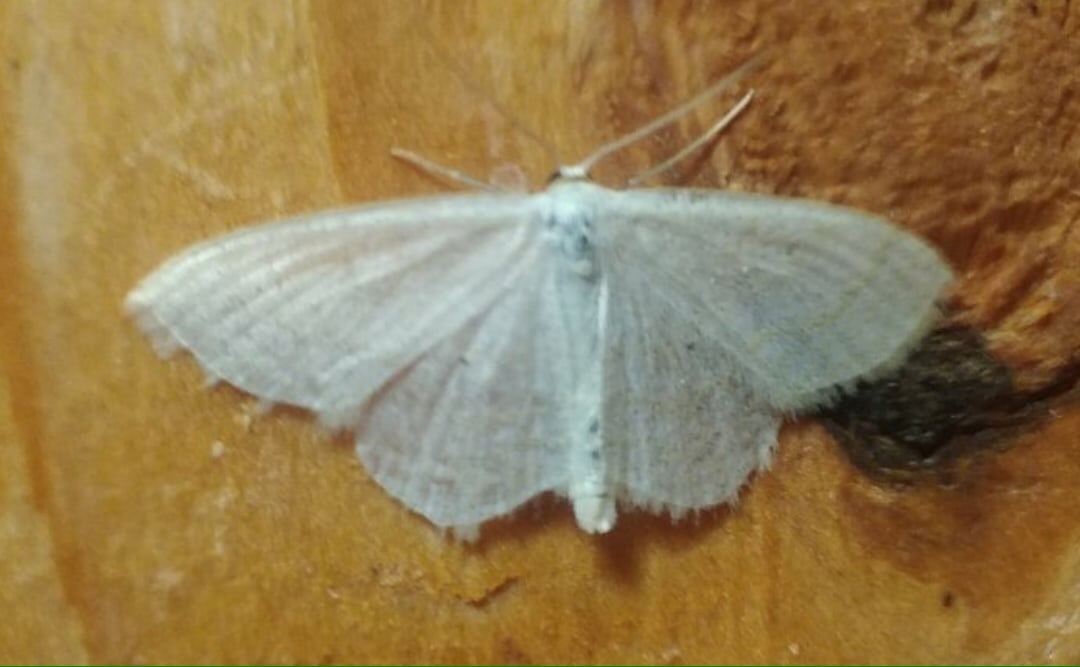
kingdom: Animalia
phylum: Arthropoda
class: Insecta
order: Lepidoptera
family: Geometridae
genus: Scopula
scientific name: Scopula immutata
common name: Lesser cream wave
